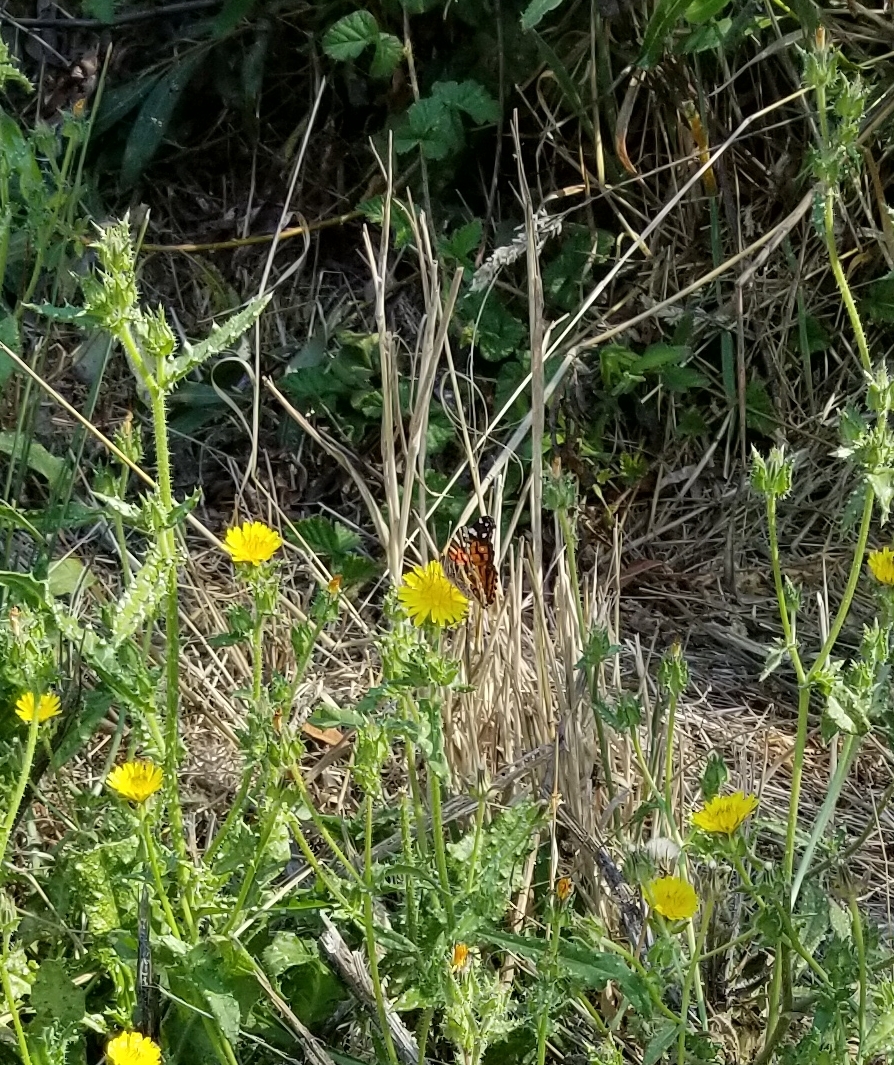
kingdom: Animalia
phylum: Arthropoda
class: Insecta
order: Lepidoptera
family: Nymphalidae
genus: Vanessa
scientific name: Vanessa virginiensis
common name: American lady
